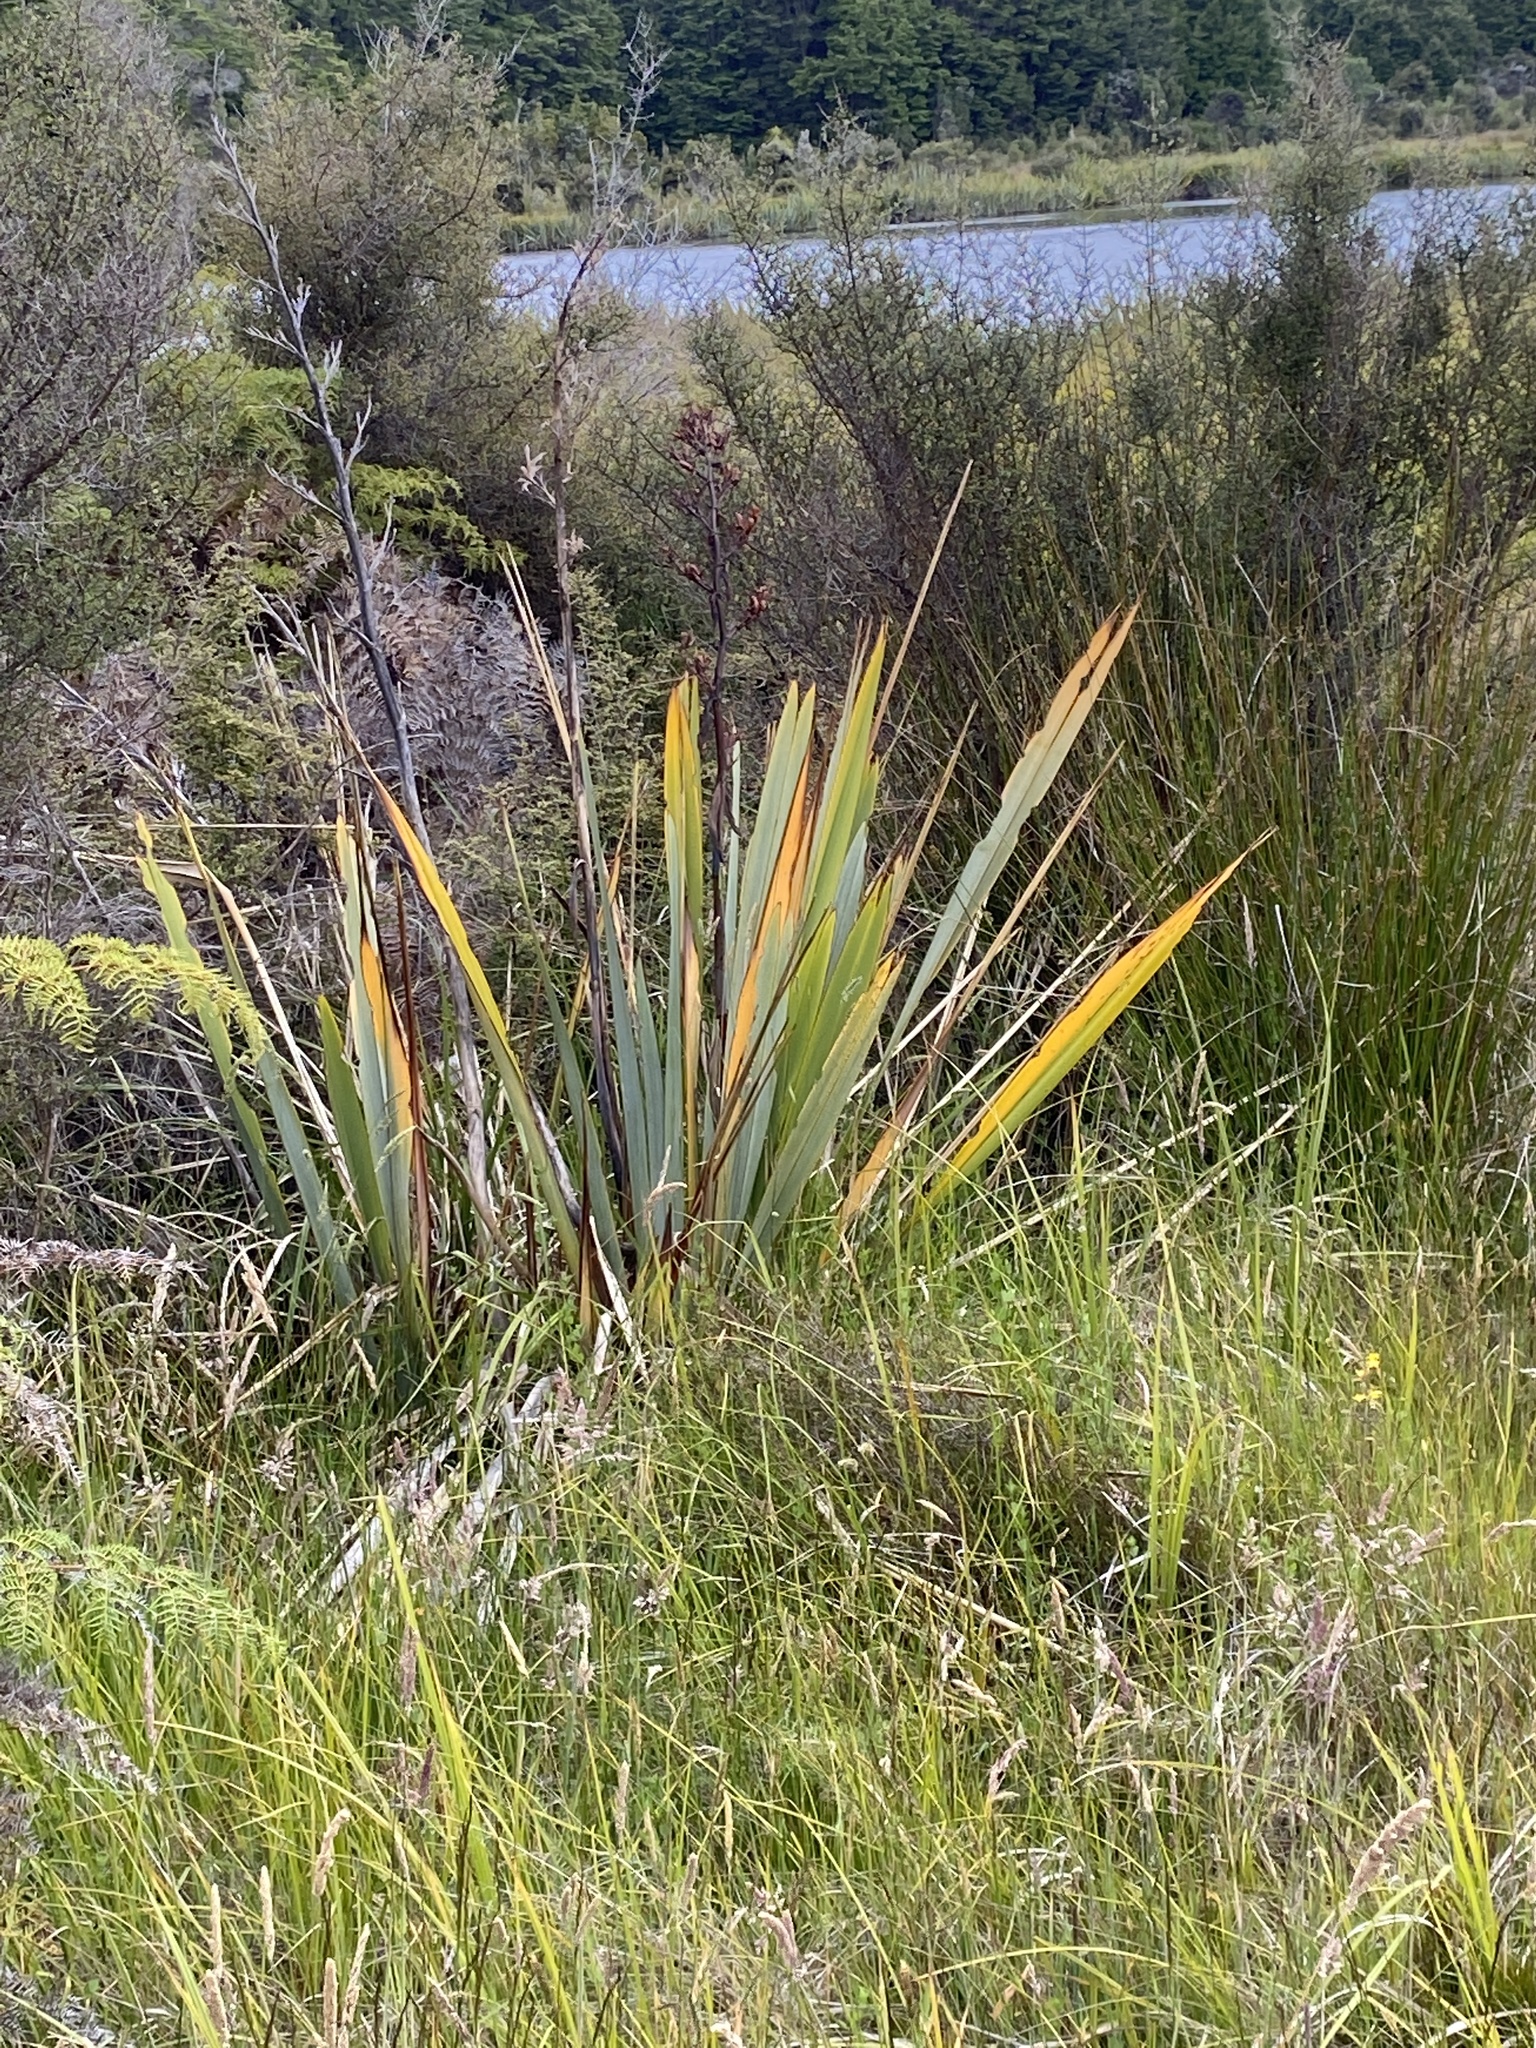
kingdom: Plantae
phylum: Tracheophyta
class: Liliopsida
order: Asparagales
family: Asphodelaceae
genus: Phormium
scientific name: Phormium tenax
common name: New zealand flax
